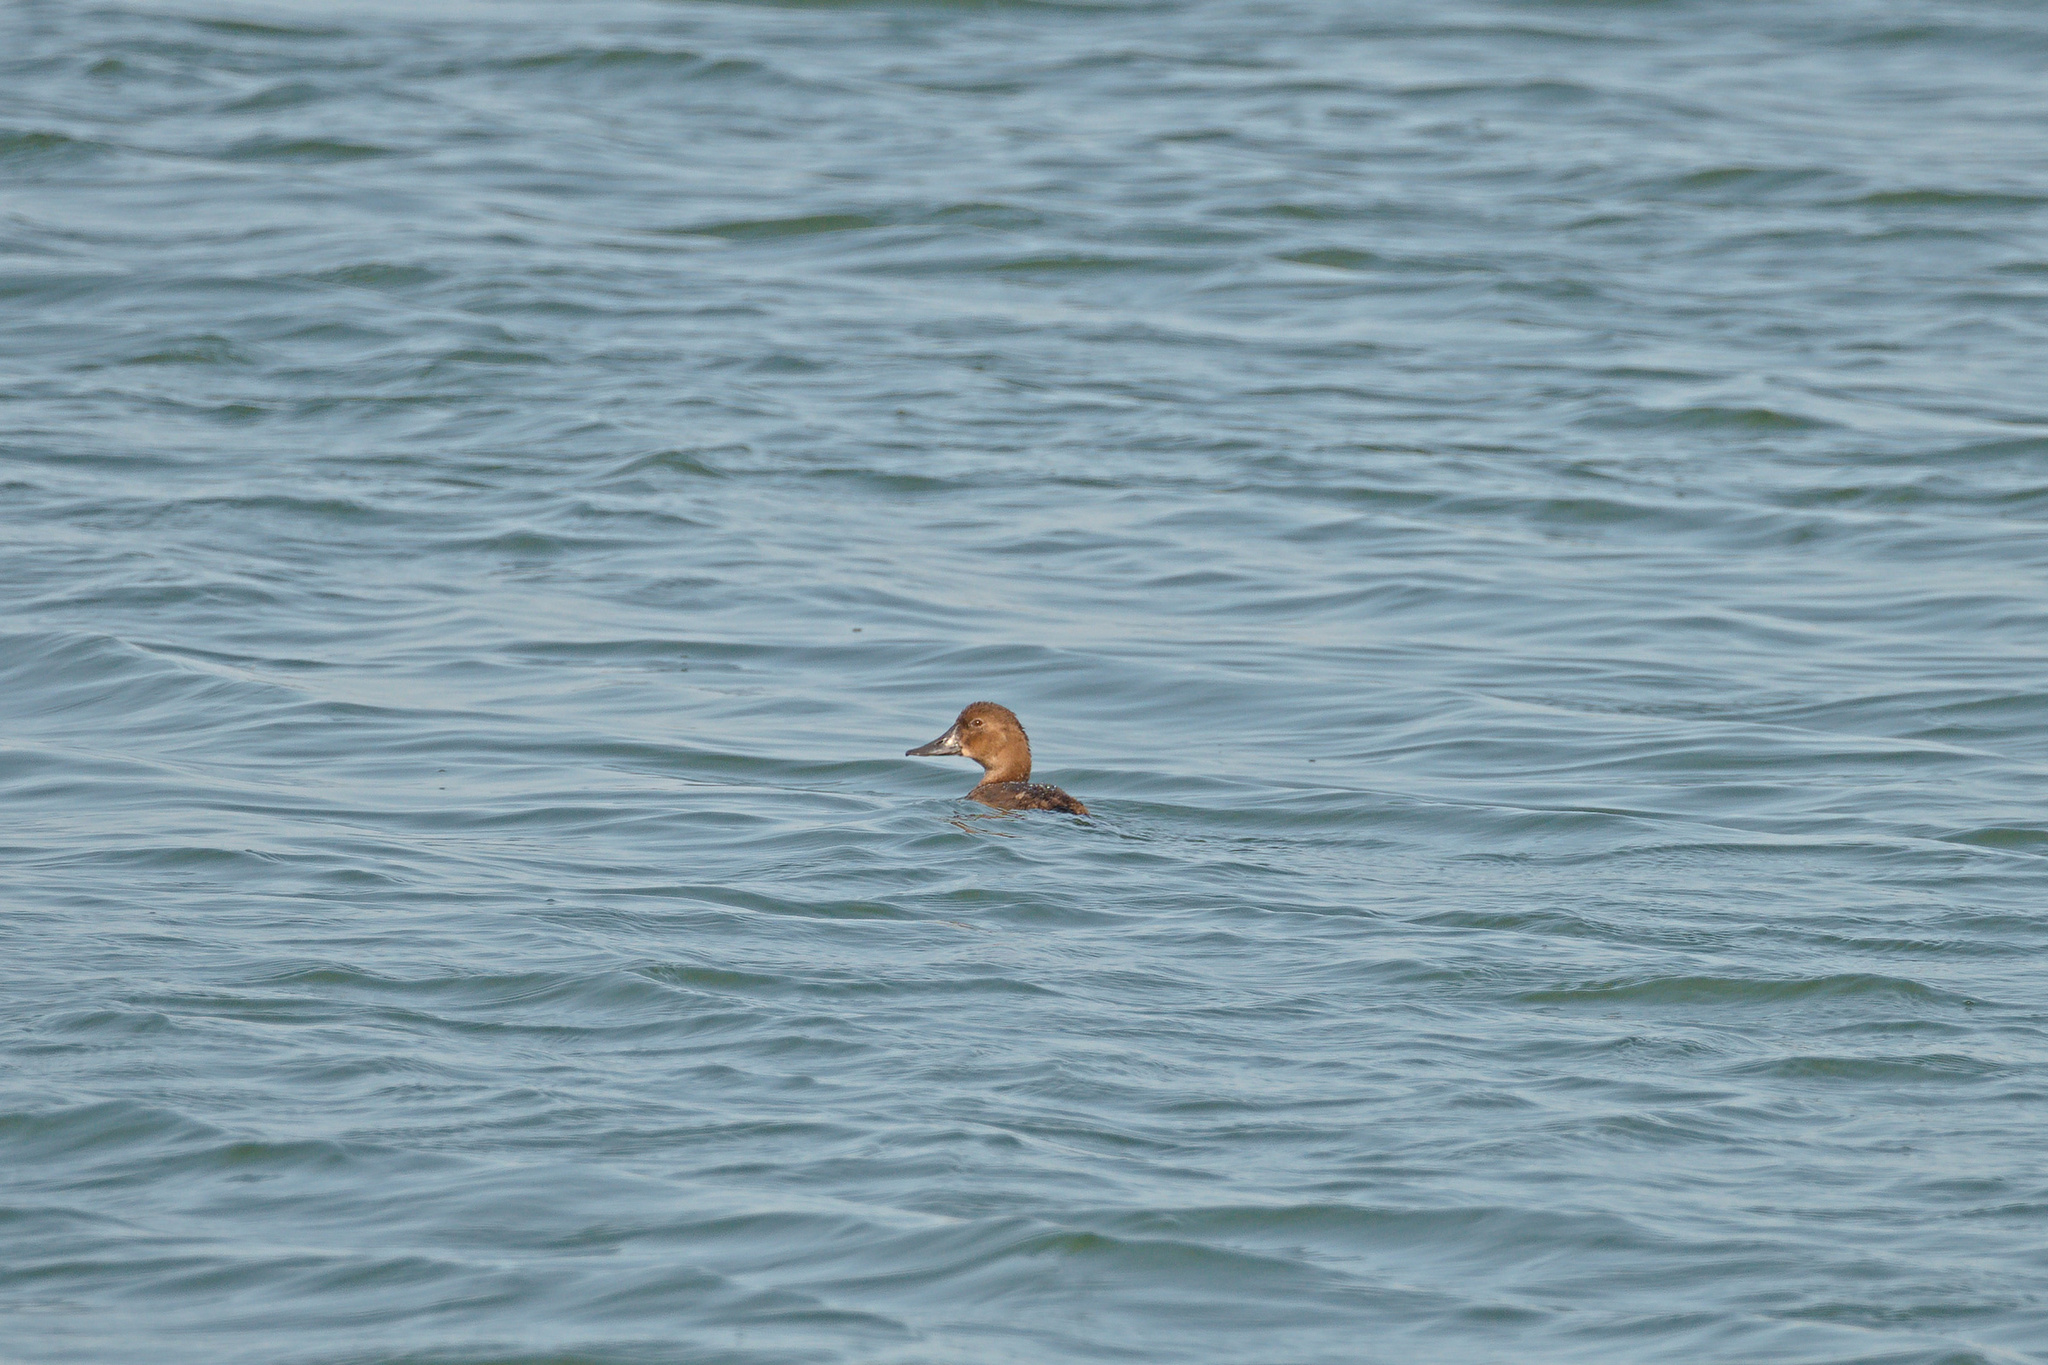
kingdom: Animalia
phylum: Chordata
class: Aves
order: Anseriformes
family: Anatidae
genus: Aythya
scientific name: Aythya ferina
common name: Common pochard
